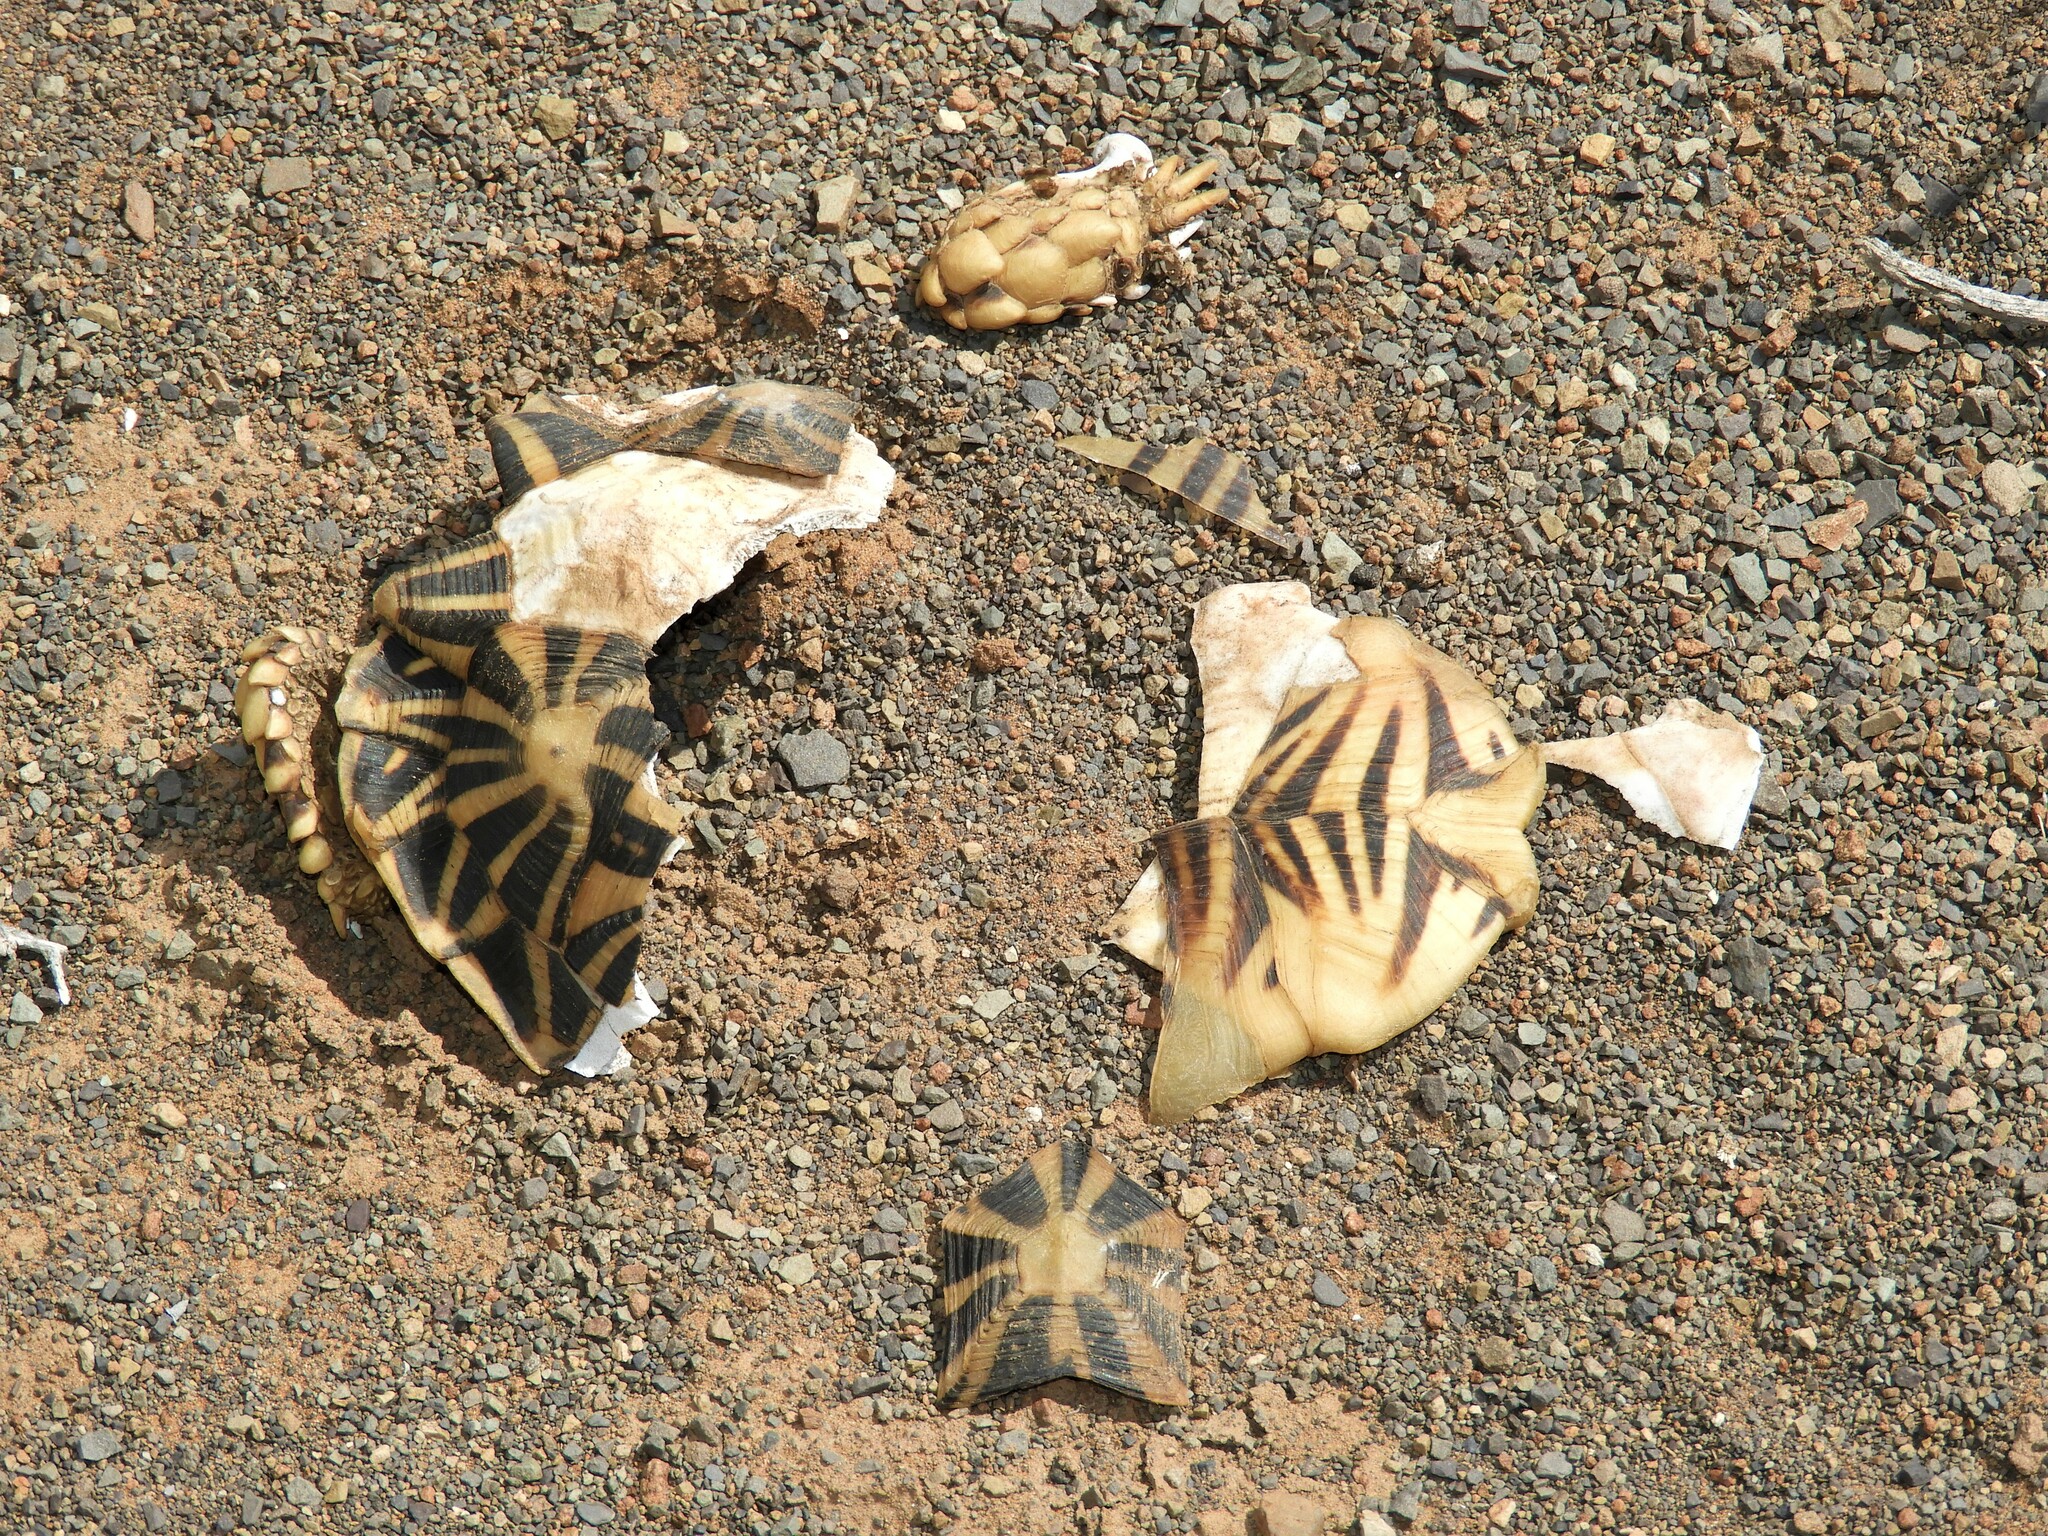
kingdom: Animalia
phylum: Chordata
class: Testudines
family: Testudinidae
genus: Psammobates
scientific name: Psammobates tentorius
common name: Tent tortoise
